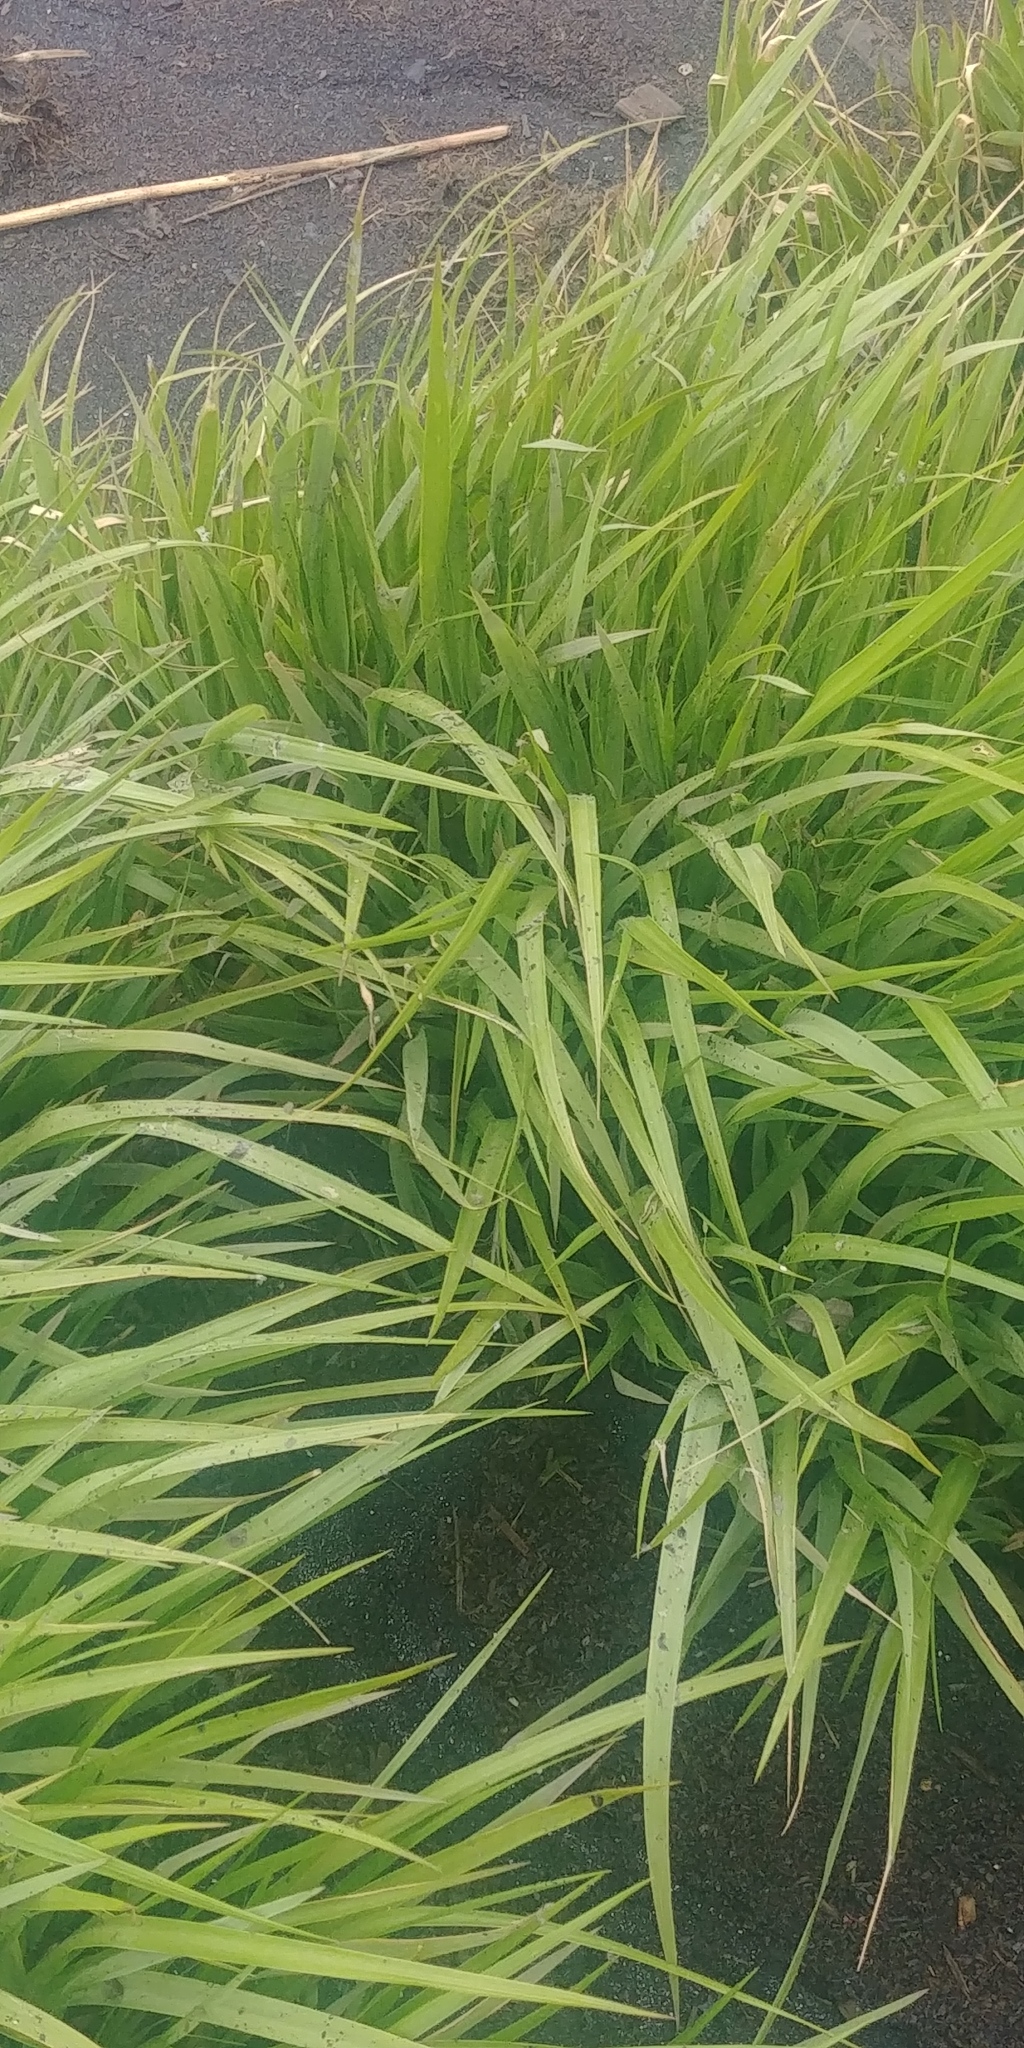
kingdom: Plantae
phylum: Tracheophyta
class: Liliopsida
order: Poales
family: Poaceae
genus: Sporobolus
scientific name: Sporobolus alterniflorus
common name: Atlantic cordgrass
